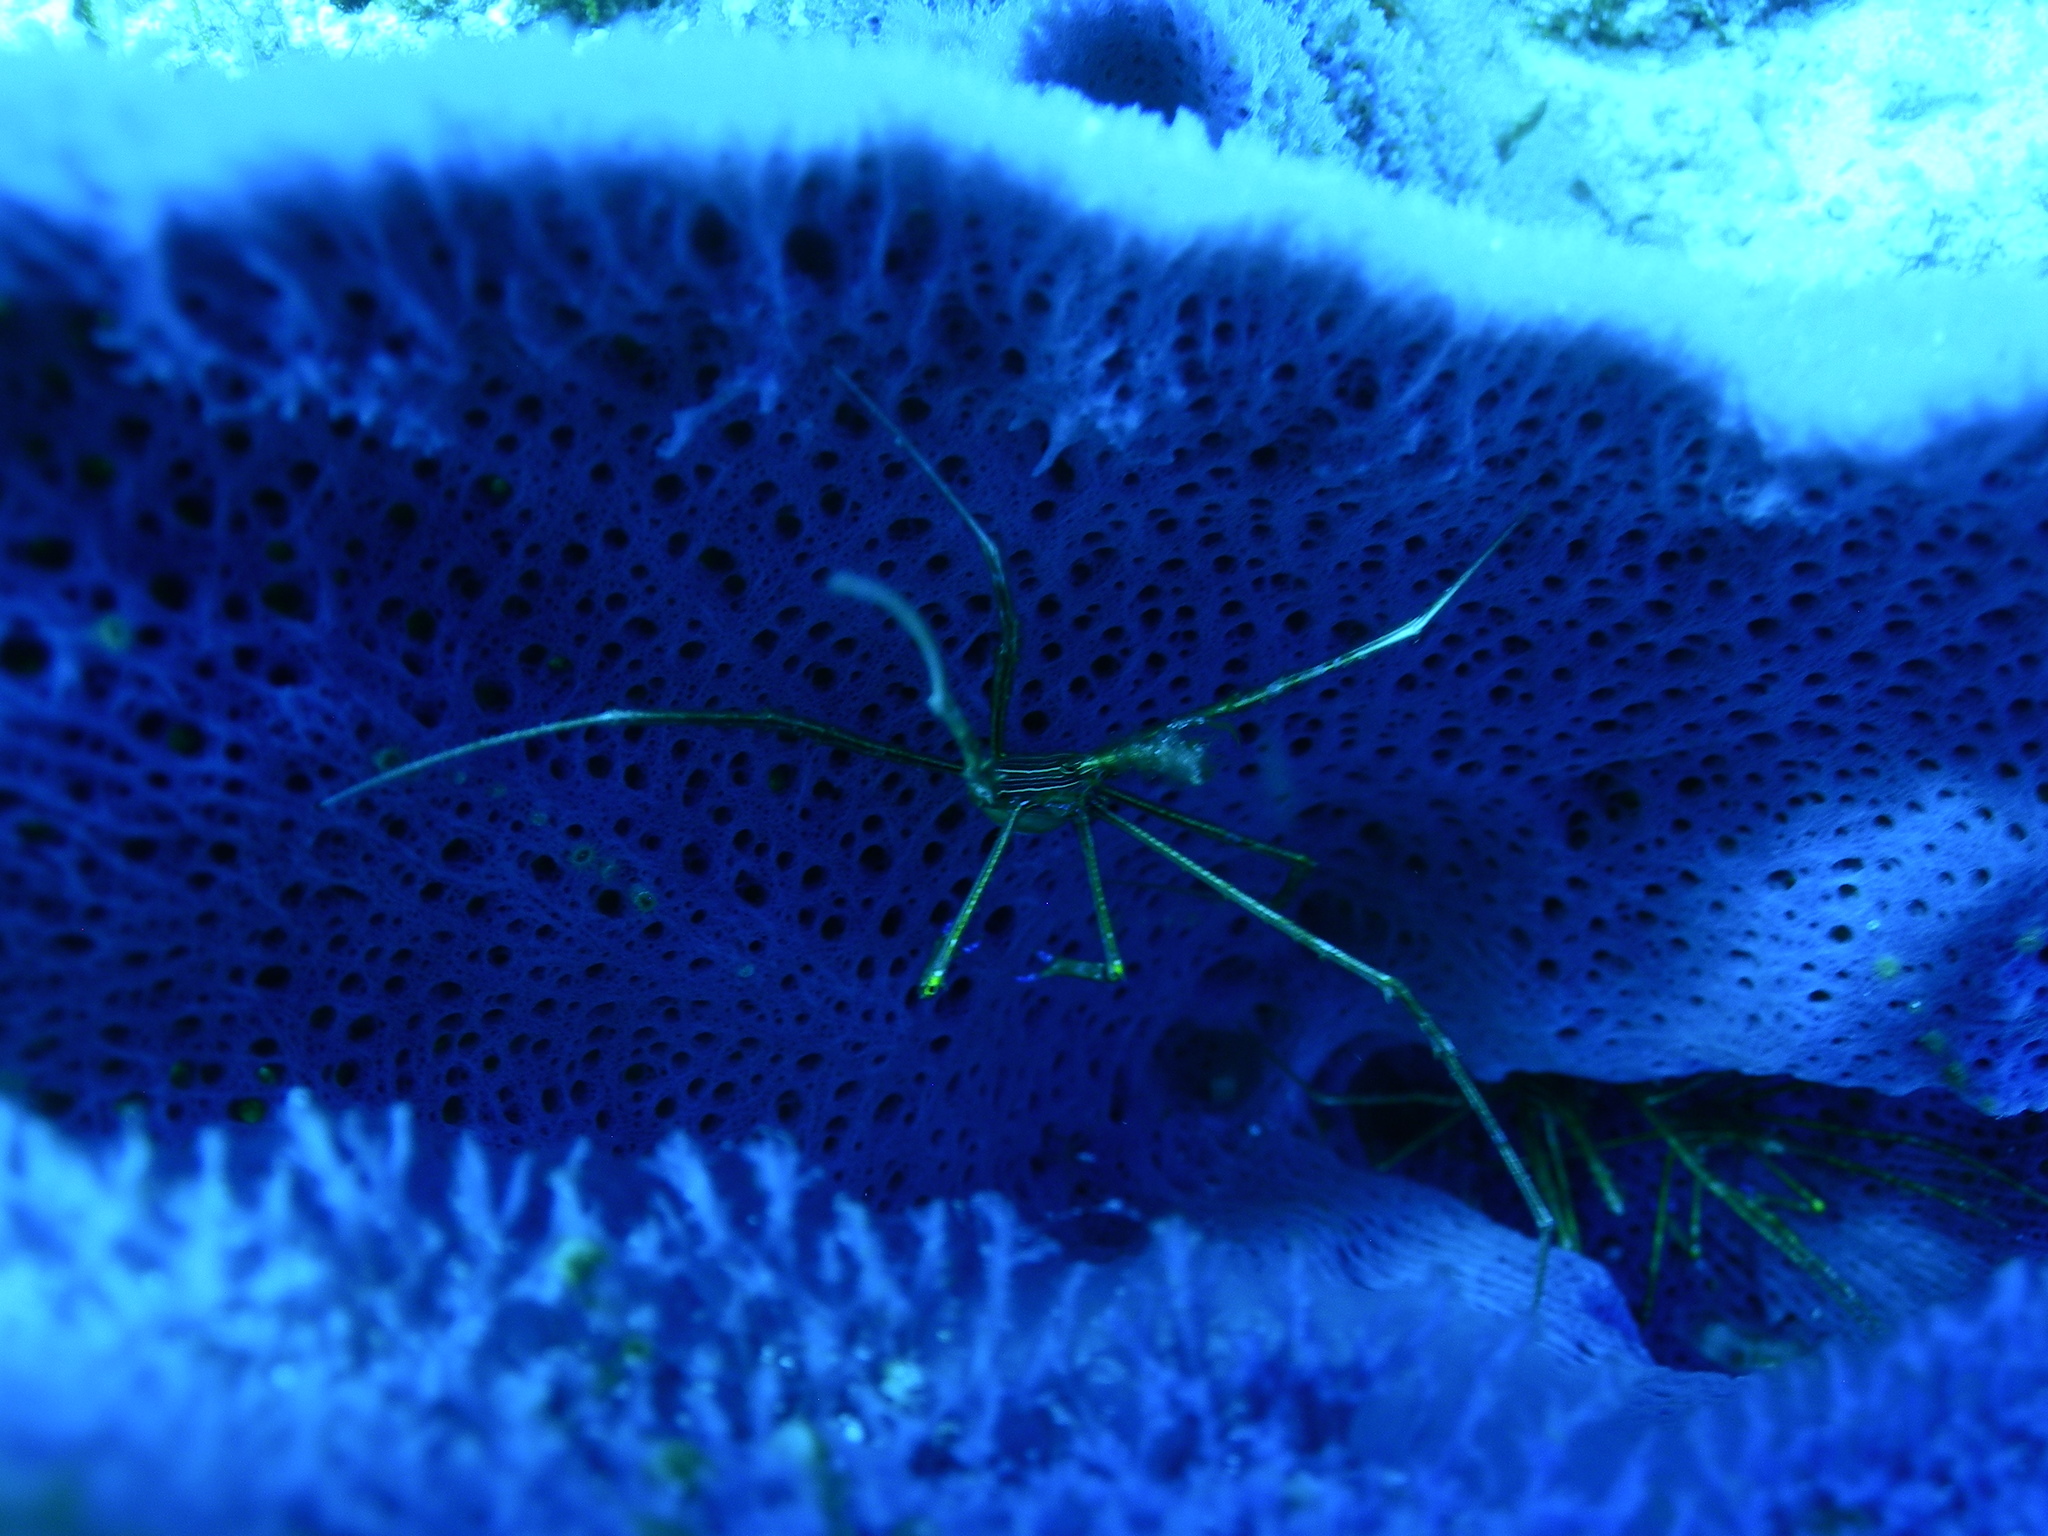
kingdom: Animalia
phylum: Arthropoda
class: Malacostraca
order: Decapoda
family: Inachoididae
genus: Stenorhynchus
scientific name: Stenorhynchus seticornis
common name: Arrow crab
